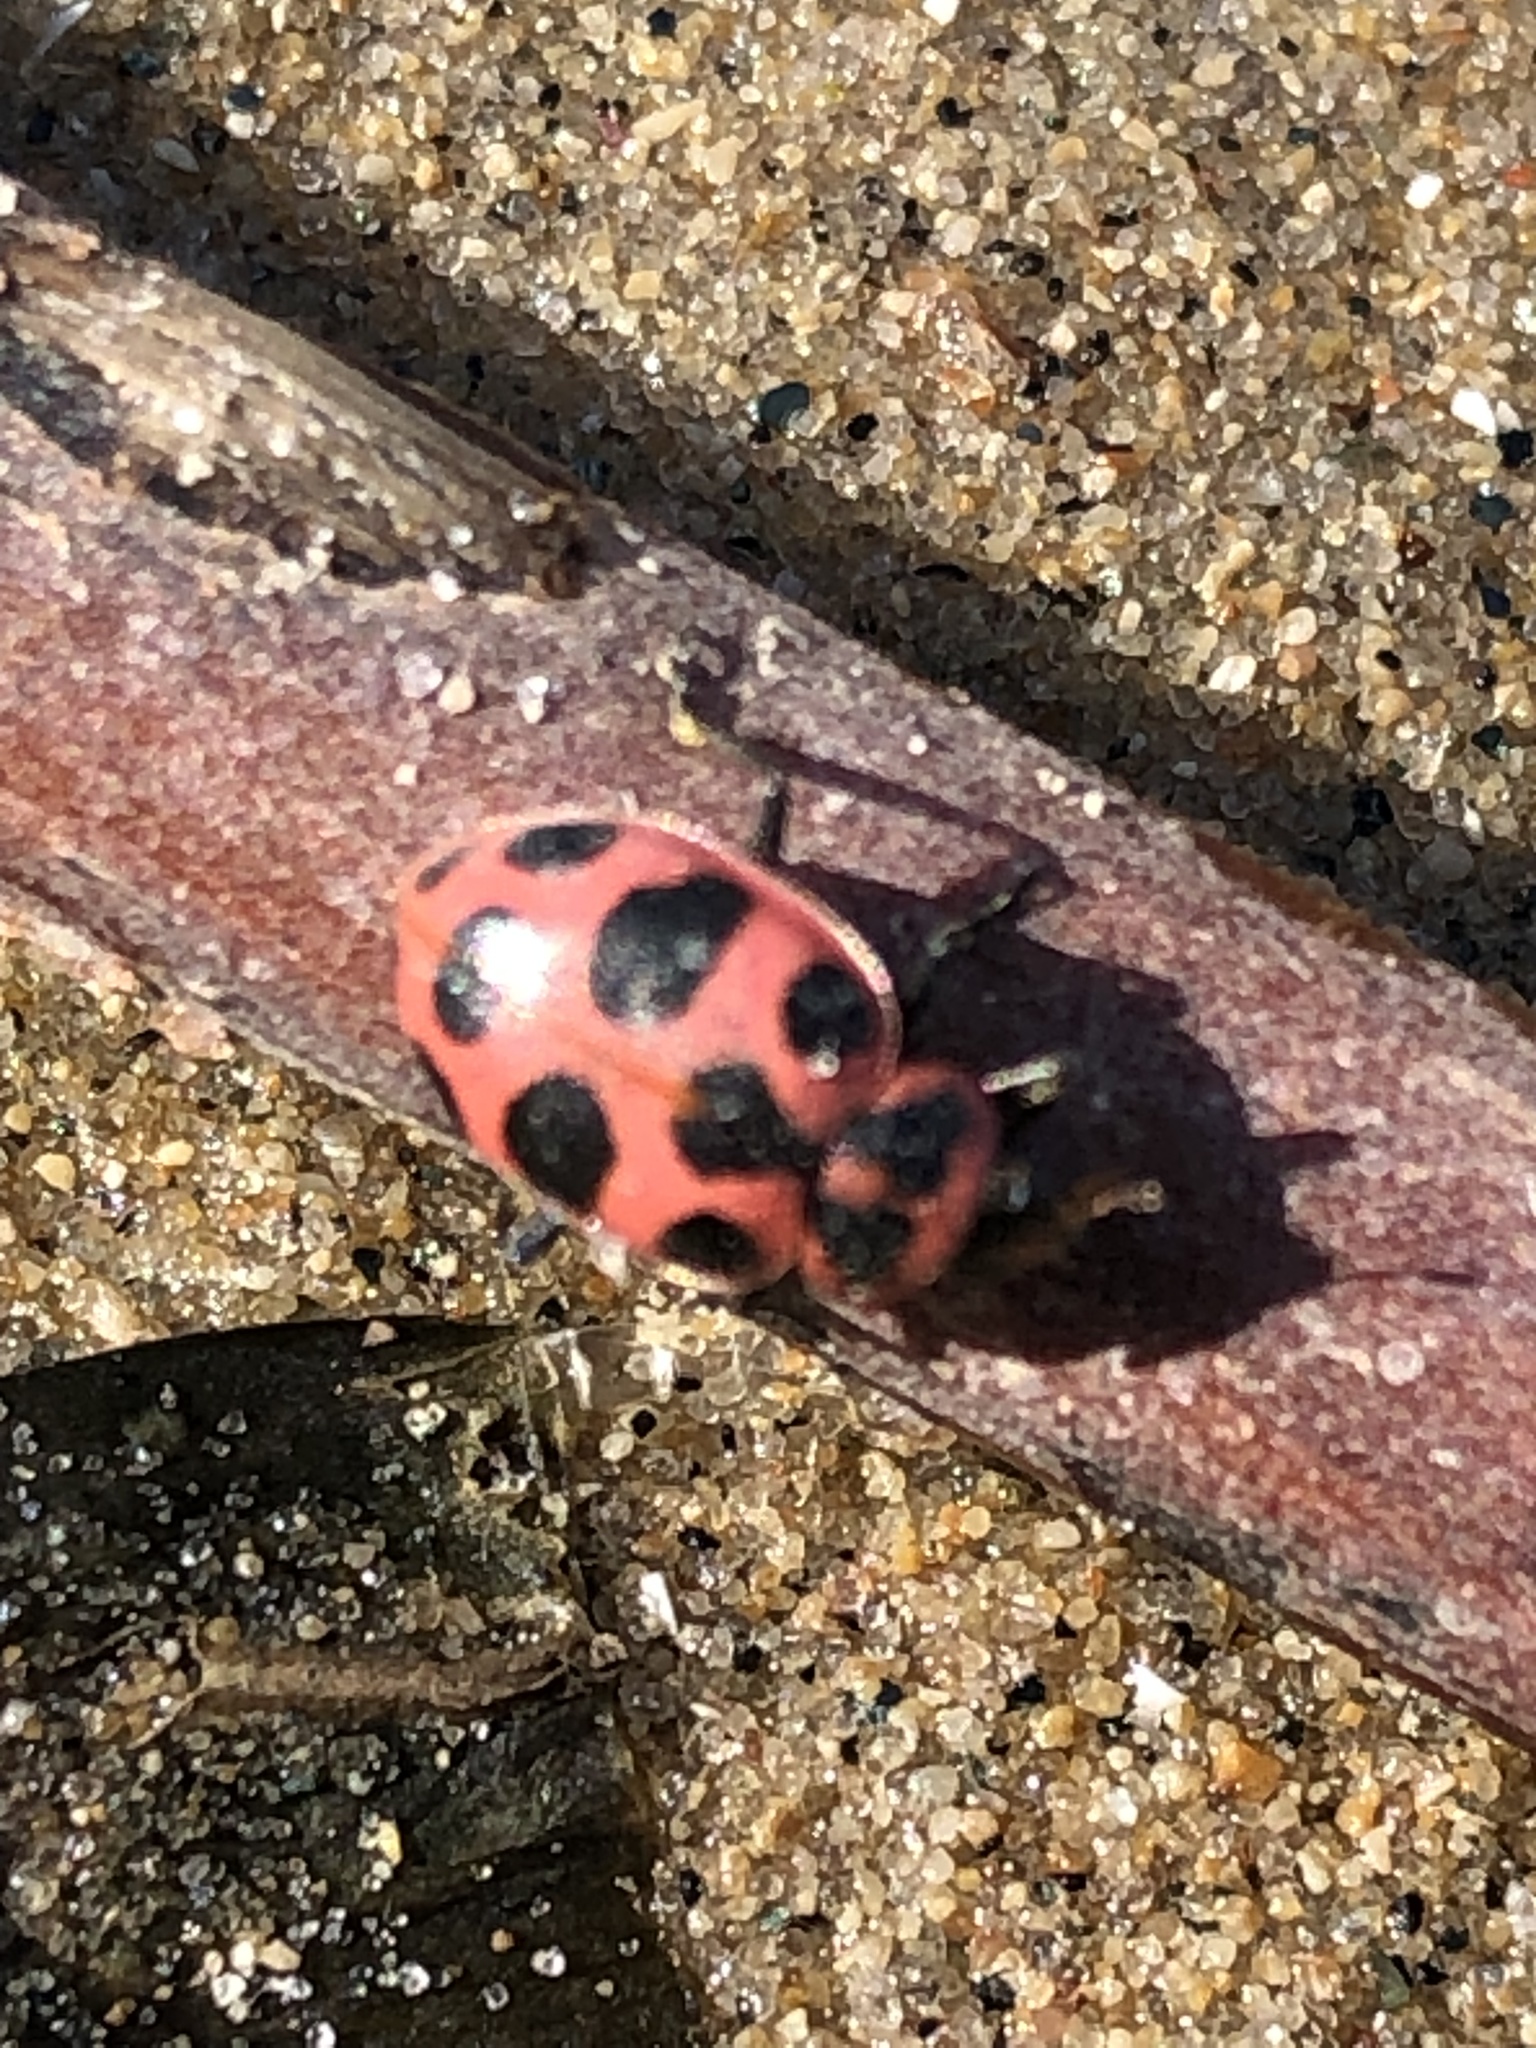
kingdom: Animalia
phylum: Arthropoda
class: Insecta
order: Coleoptera
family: Coccinellidae
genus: Coleomegilla
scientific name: Coleomegilla maculata
